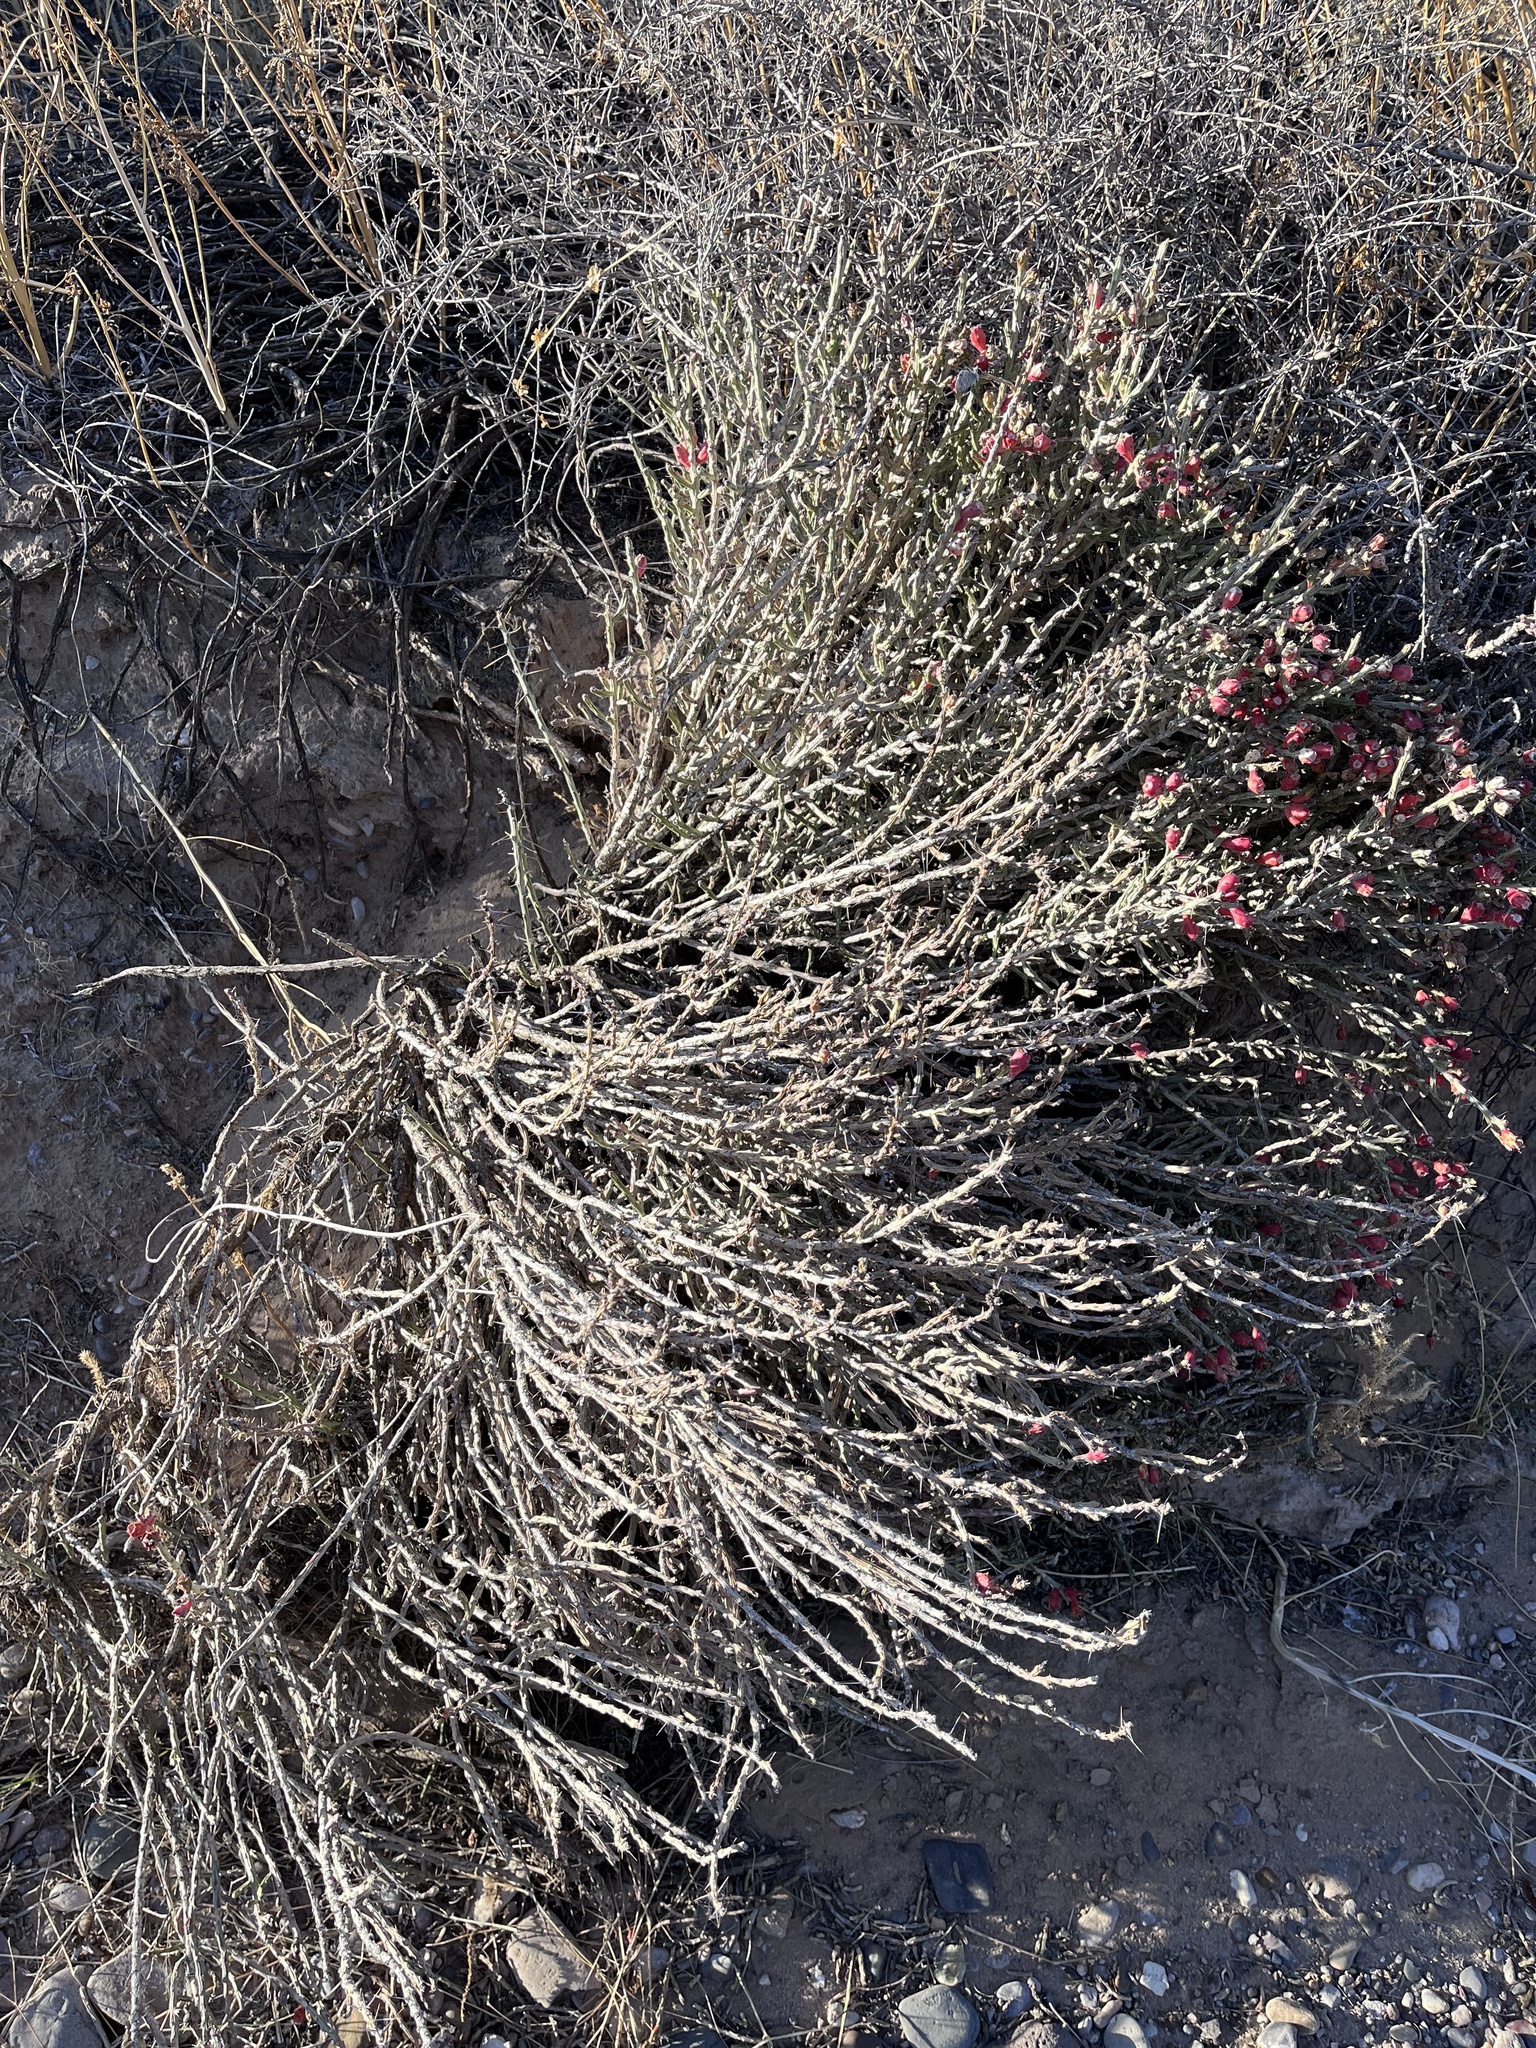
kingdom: Plantae
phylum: Tracheophyta
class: Magnoliopsida
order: Caryophyllales
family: Cactaceae
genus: Cylindropuntia
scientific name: Cylindropuntia leptocaulis
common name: Christmas cactus
